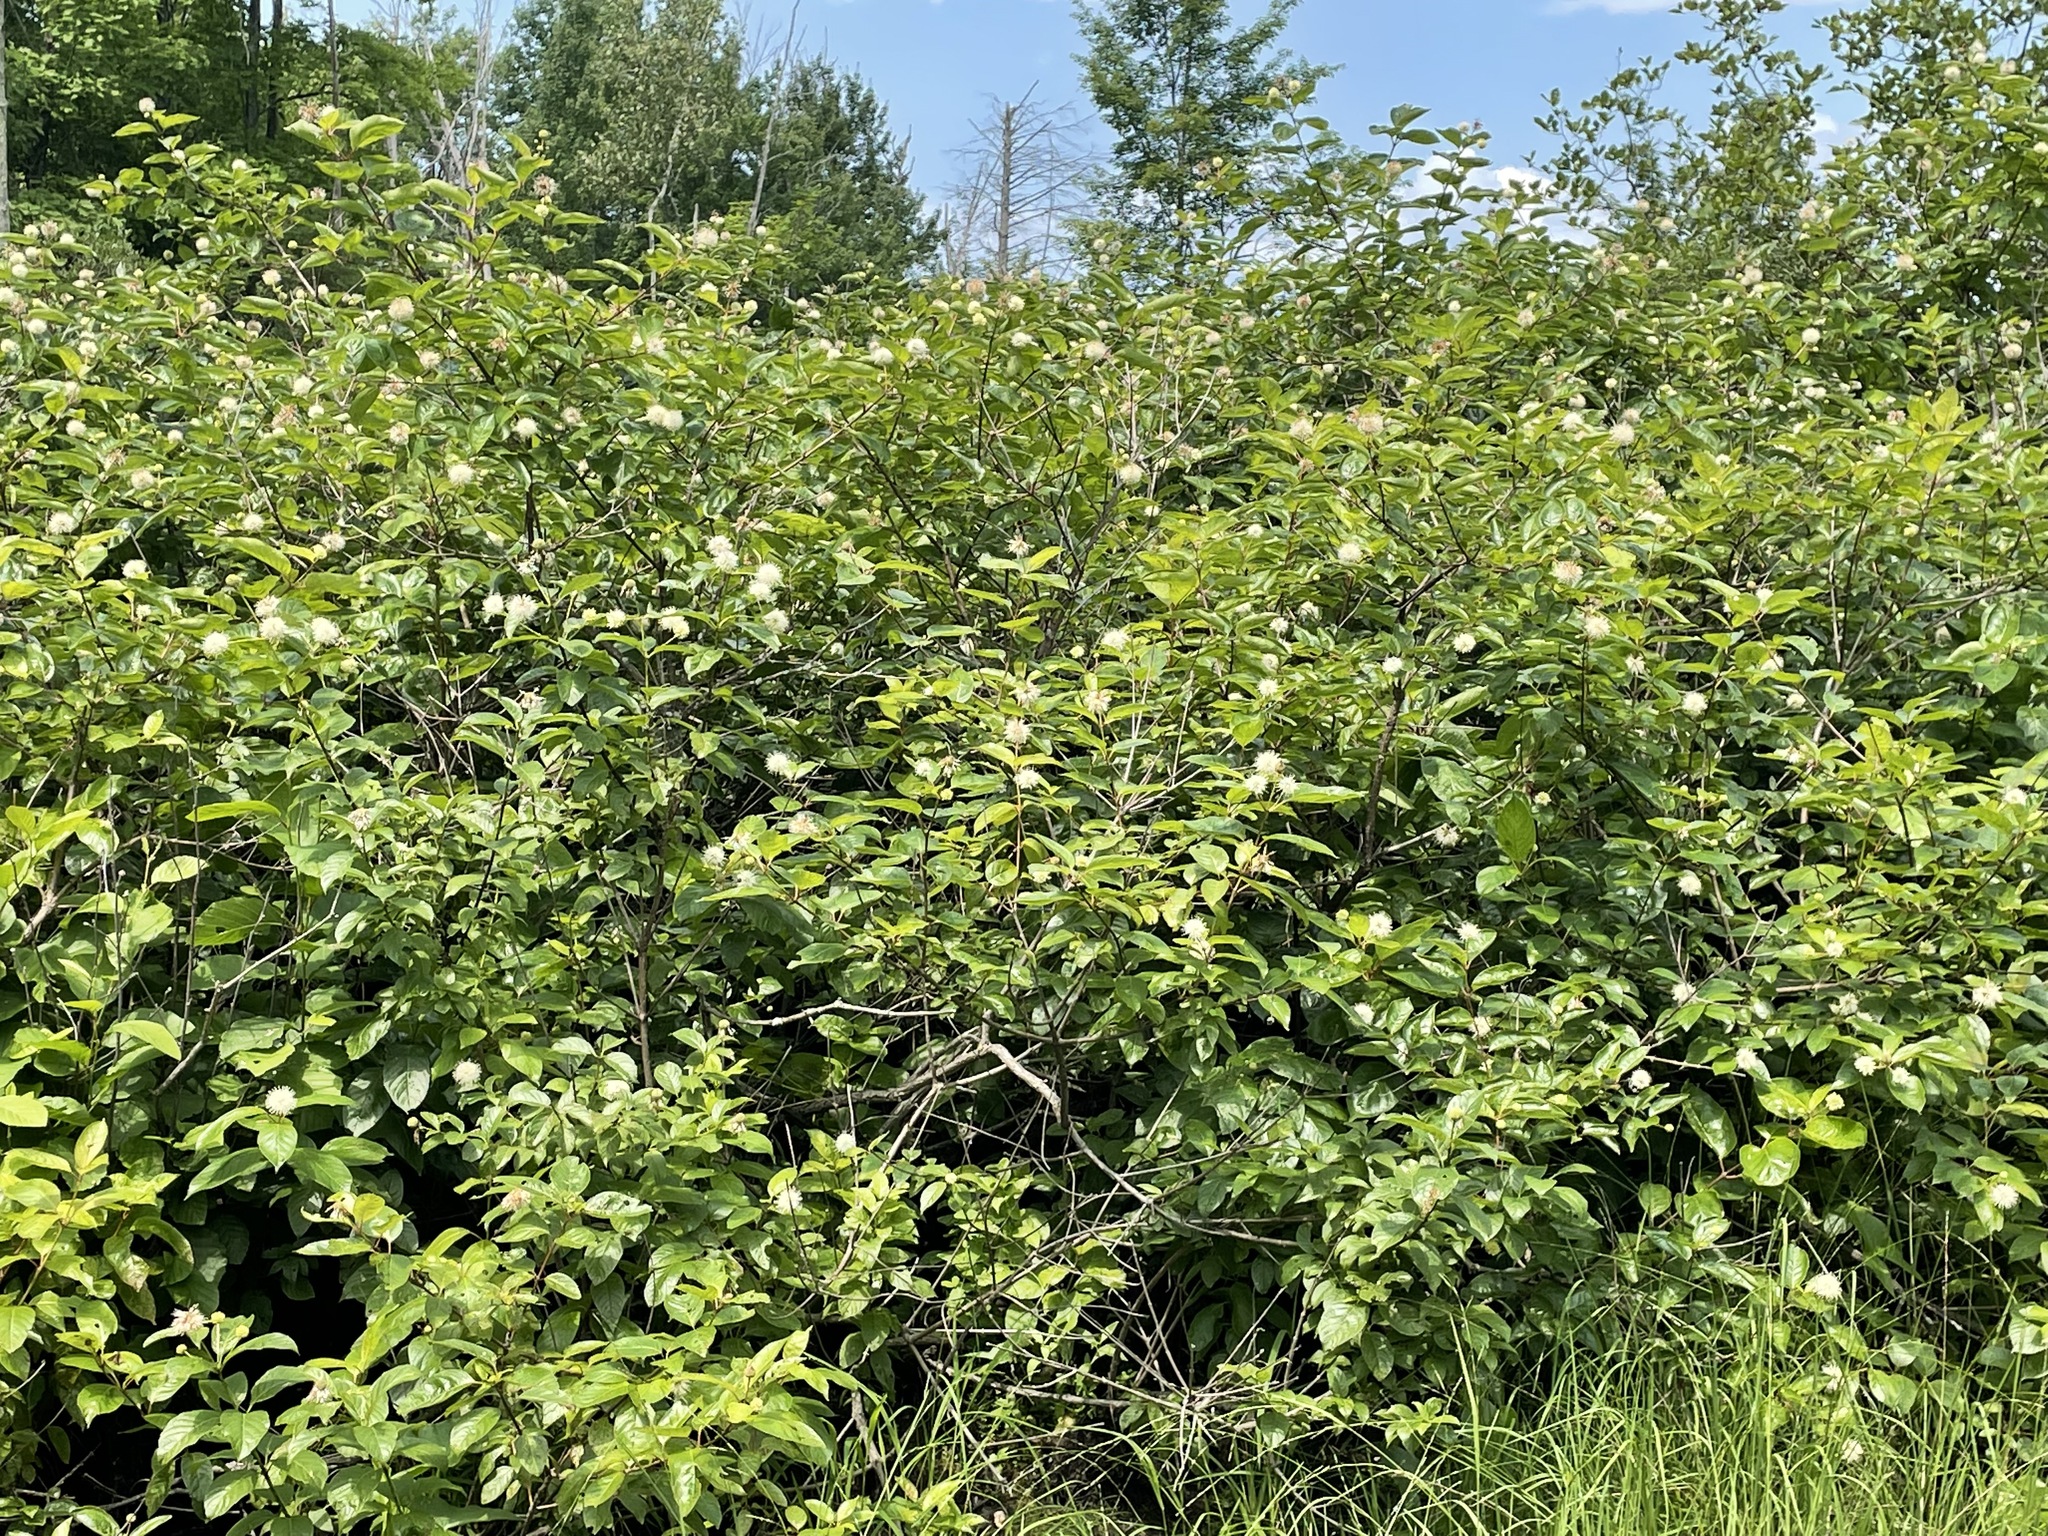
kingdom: Plantae
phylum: Tracheophyta
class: Magnoliopsida
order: Gentianales
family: Rubiaceae
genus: Cephalanthus
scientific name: Cephalanthus occidentalis
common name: Button-willow
